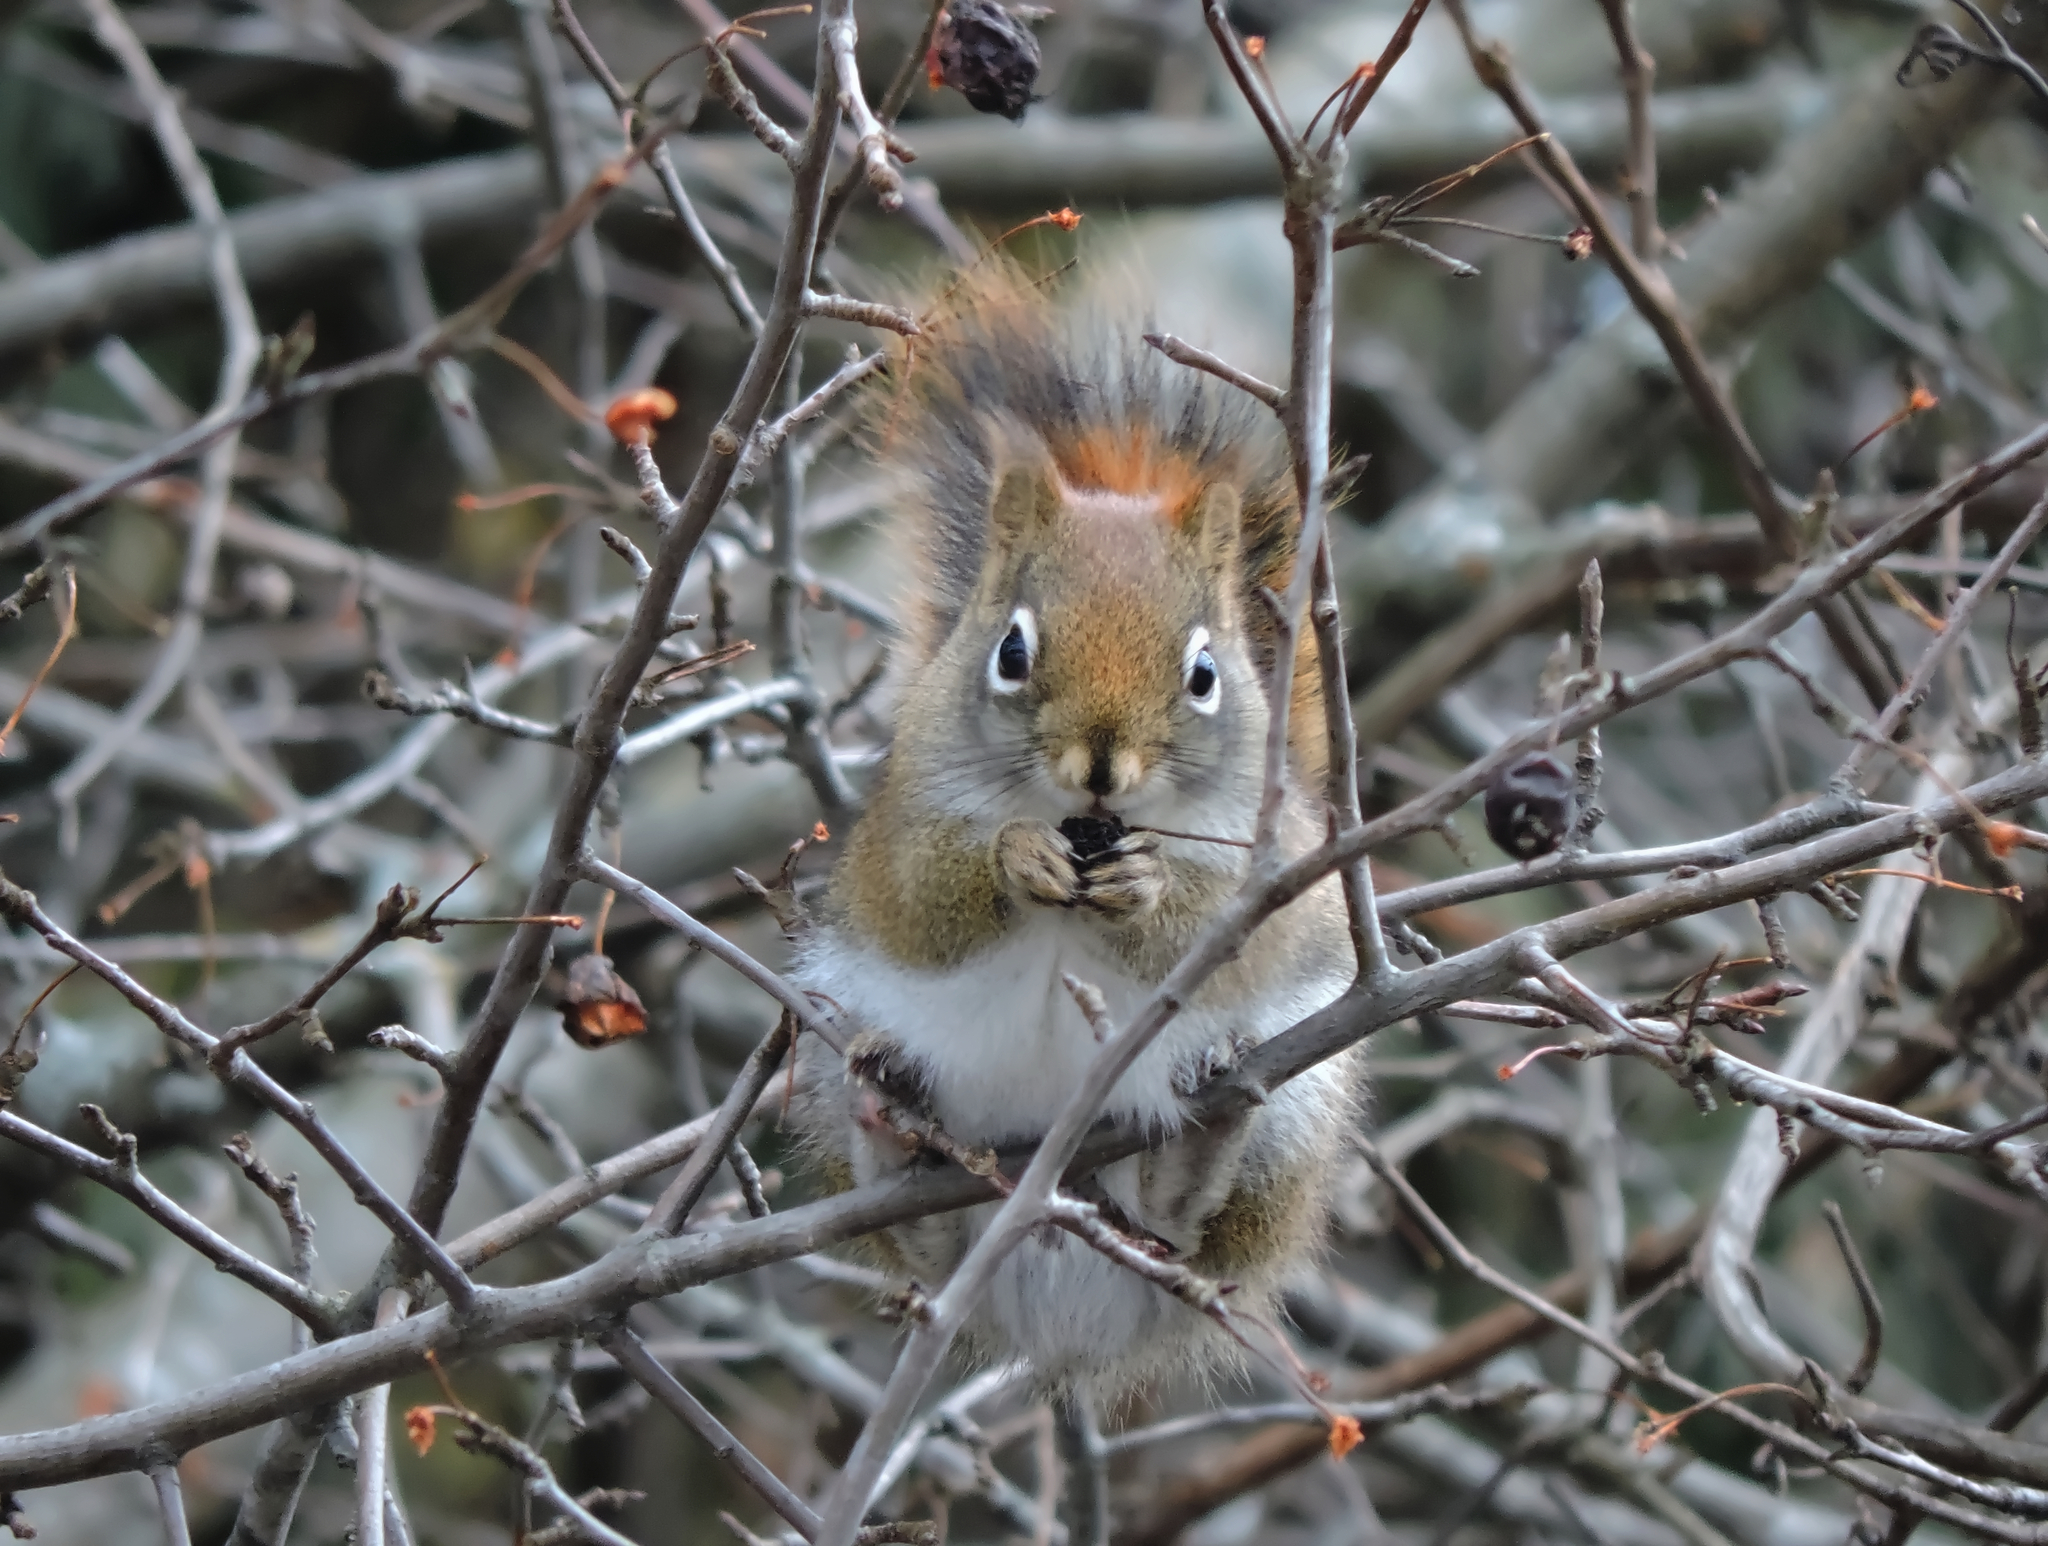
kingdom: Animalia
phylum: Chordata
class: Mammalia
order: Rodentia
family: Sciuridae
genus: Tamiasciurus
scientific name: Tamiasciurus hudsonicus
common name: Red squirrel
